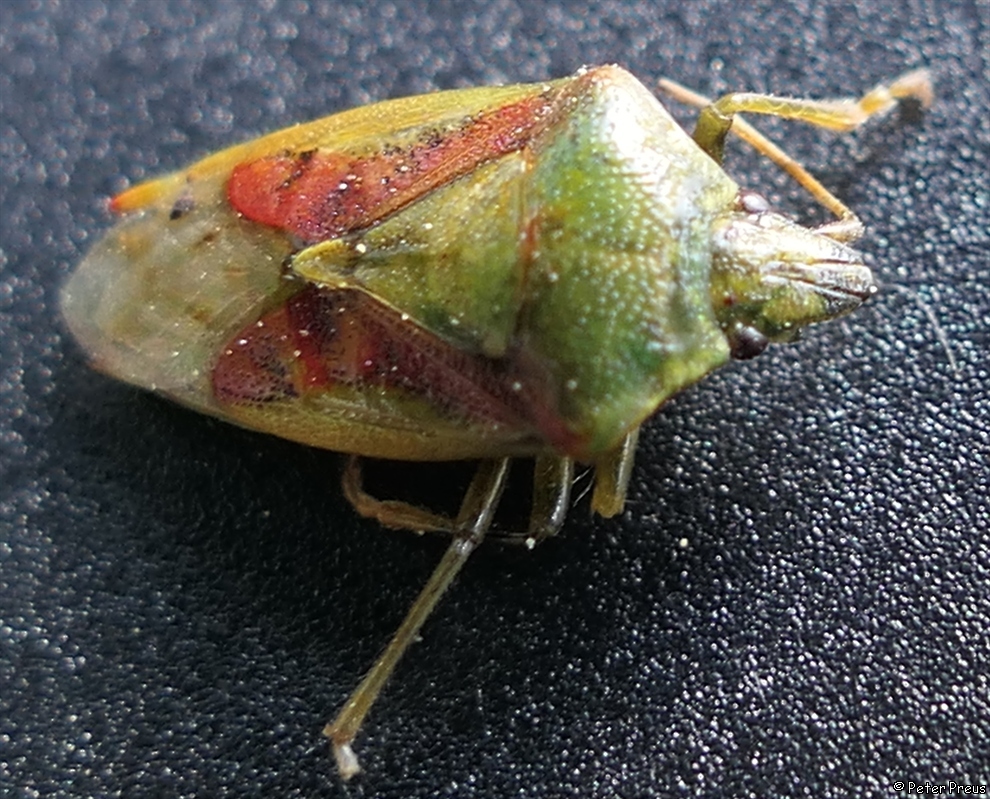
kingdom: Animalia
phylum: Arthropoda
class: Insecta
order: Hemiptera
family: Acanthosomatidae
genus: Cyphostethus
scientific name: Cyphostethus tristriatus
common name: Juniper shieldbug
